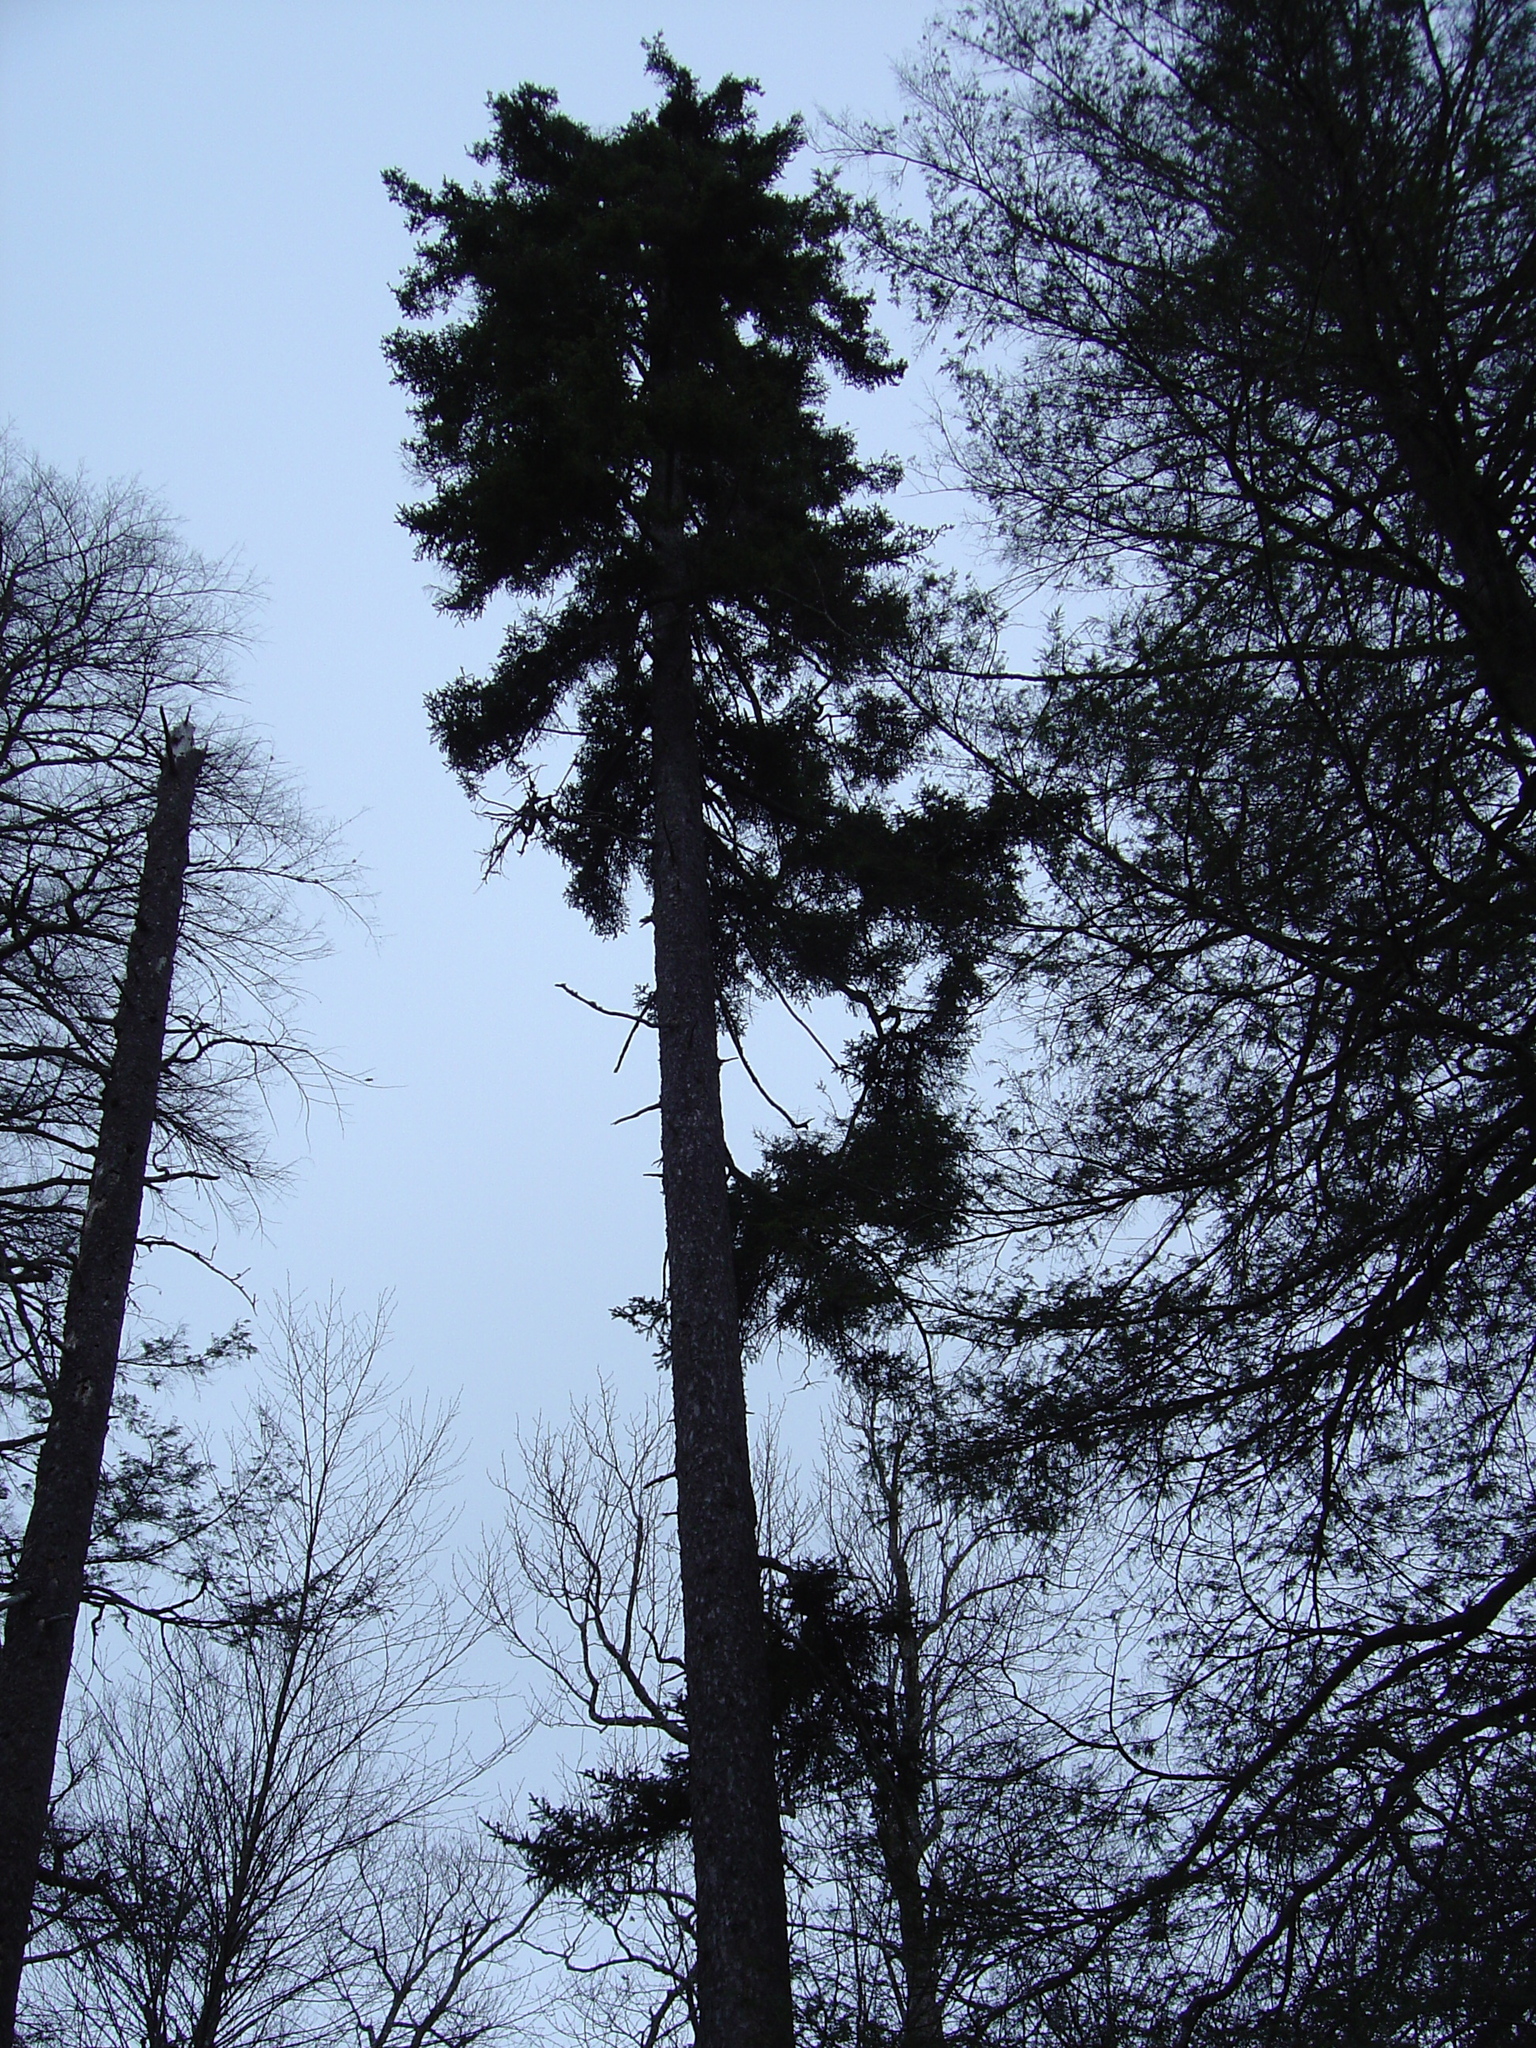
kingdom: Plantae
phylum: Tracheophyta
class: Pinopsida
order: Pinales
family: Pinaceae
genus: Picea
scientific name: Picea rubens
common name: Red spruce
